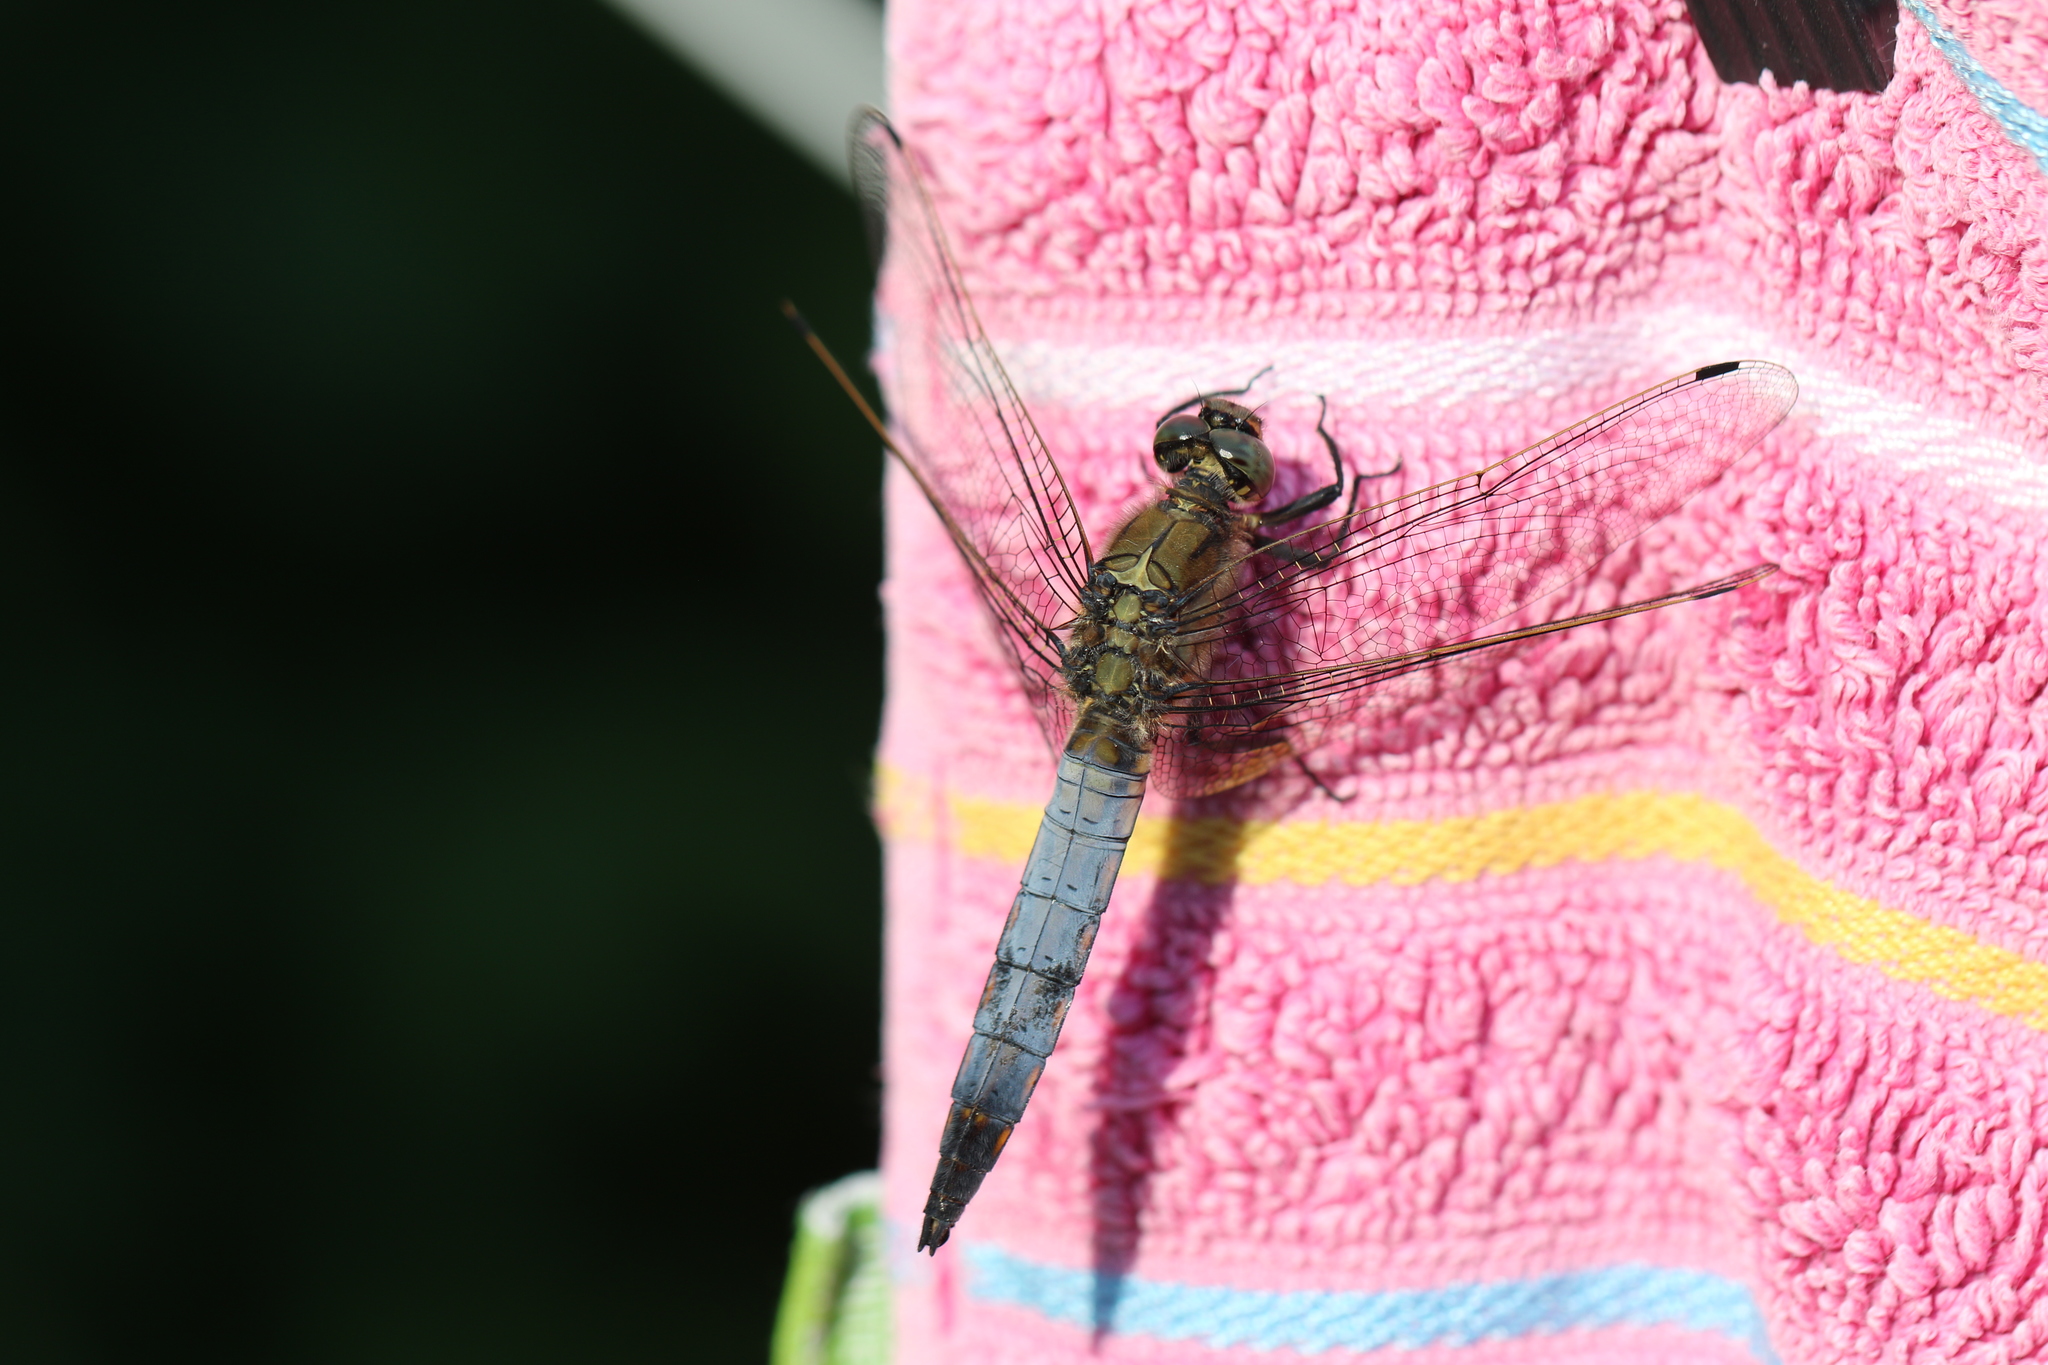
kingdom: Animalia
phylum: Arthropoda
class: Insecta
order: Odonata
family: Libellulidae
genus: Orthetrum
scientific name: Orthetrum cancellatum
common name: Black-tailed skimmer
